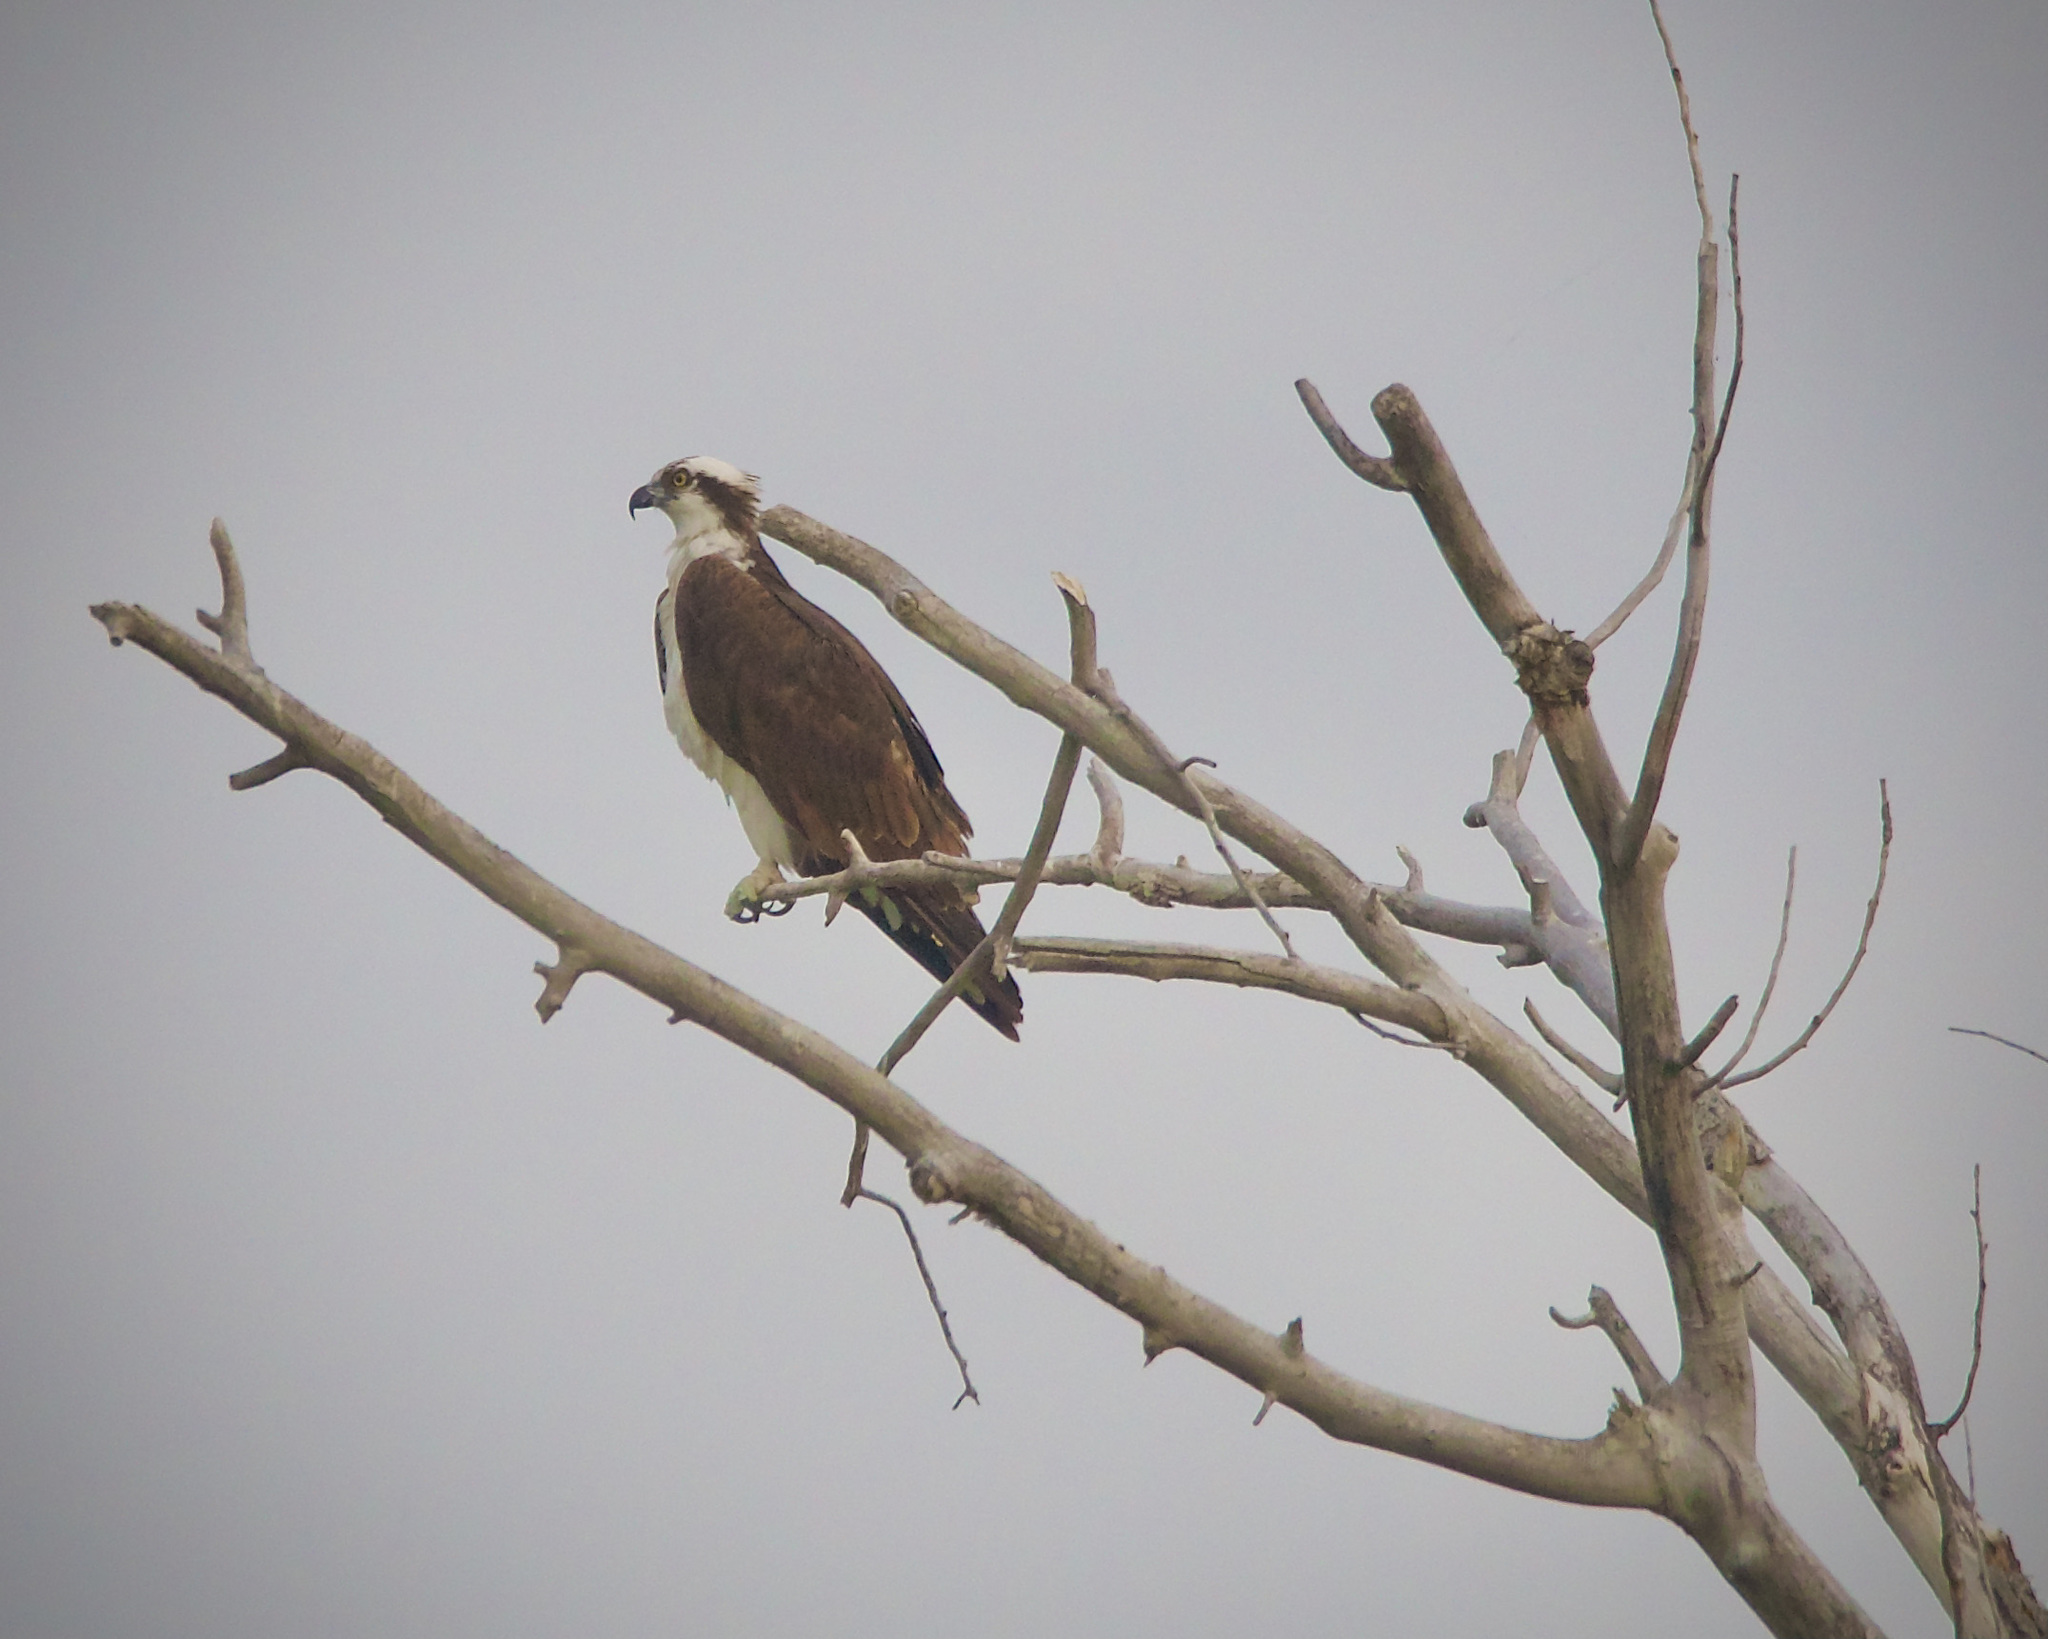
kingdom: Animalia
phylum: Chordata
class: Aves
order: Accipitriformes
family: Pandionidae
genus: Pandion
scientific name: Pandion haliaetus
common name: Osprey
